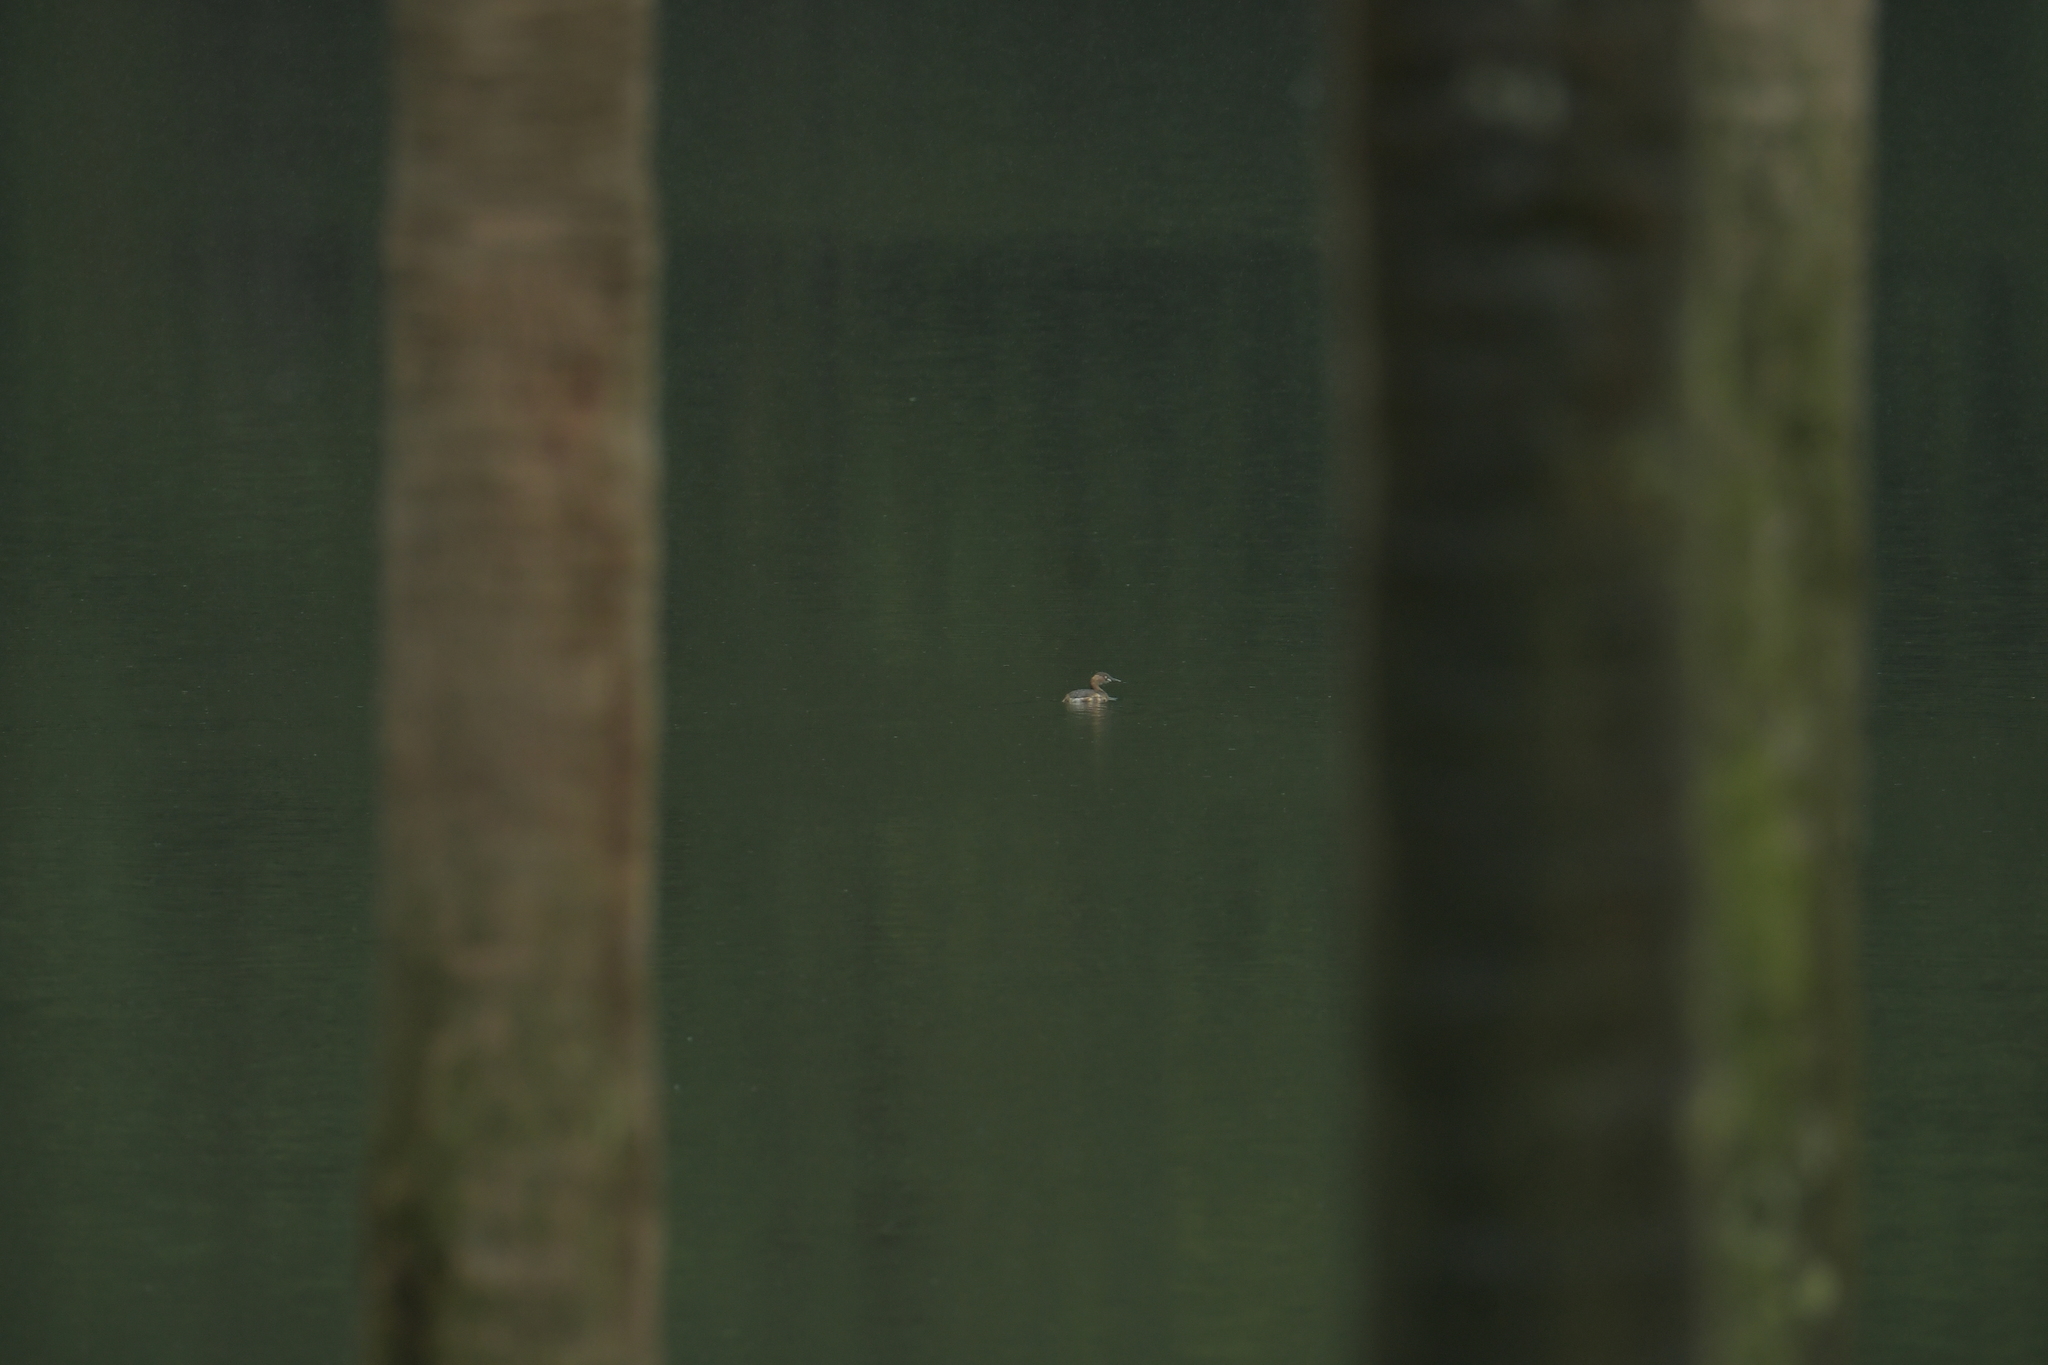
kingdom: Animalia
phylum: Chordata
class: Aves
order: Podicipediformes
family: Podicipedidae
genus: Tachybaptus
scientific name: Tachybaptus ruficollis
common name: Little grebe
